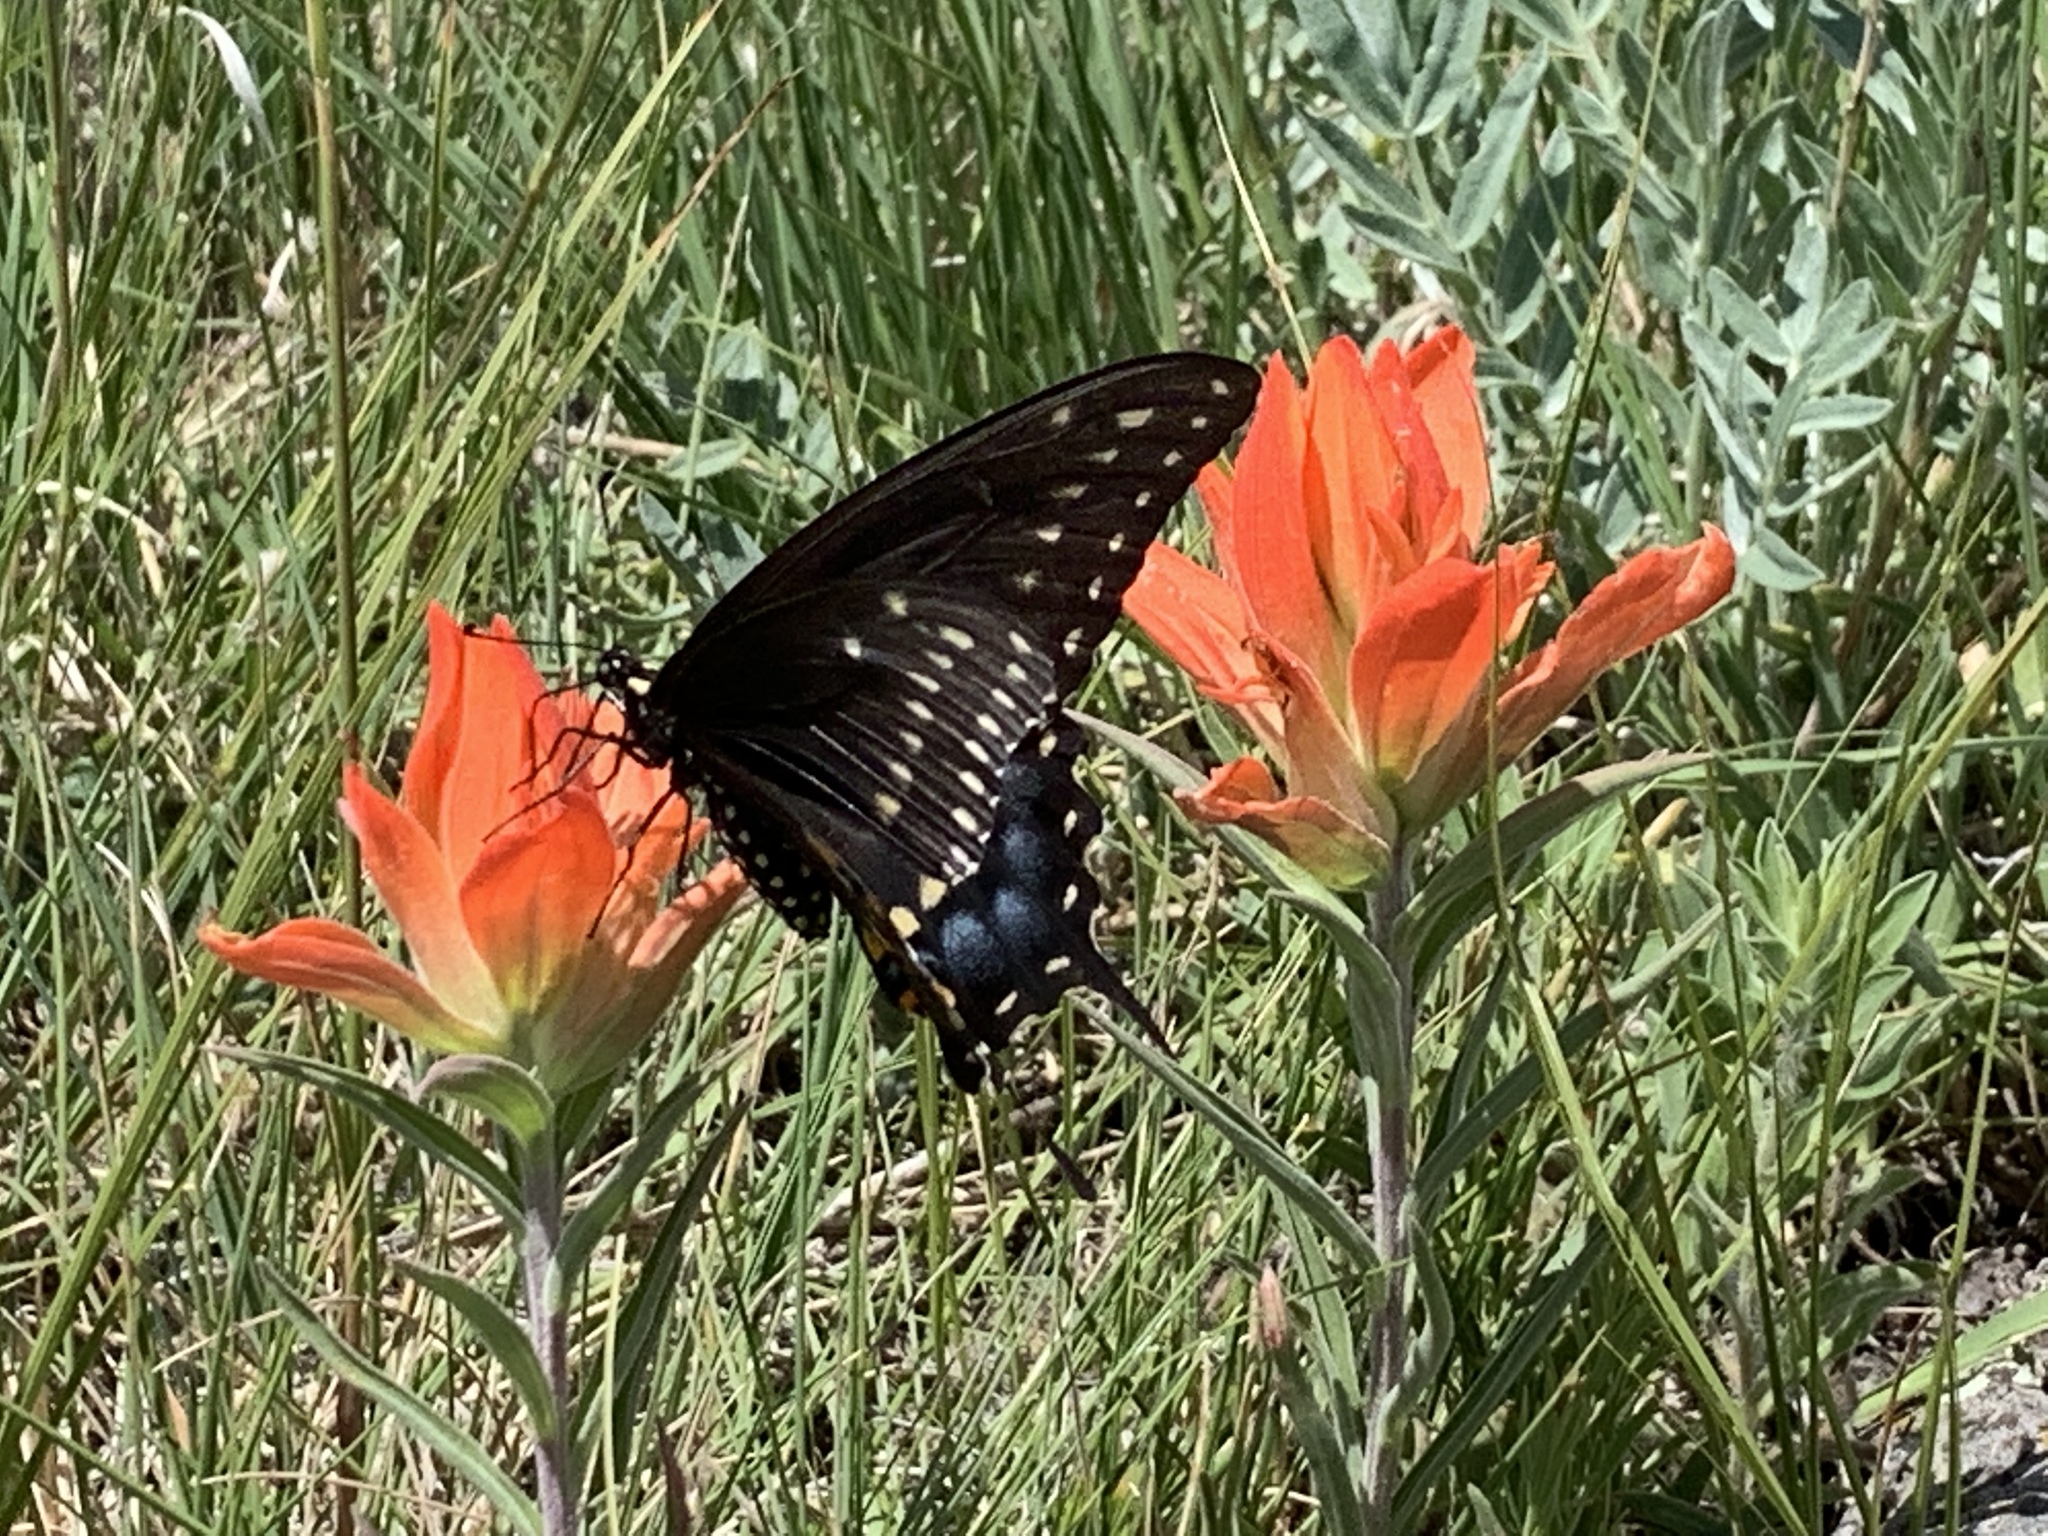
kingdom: Animalia
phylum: Arthropoda
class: Insecta
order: Lepidoptera
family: Papilionidae
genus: Papilio
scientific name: Papilio polyxenes
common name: Black swallowtail
